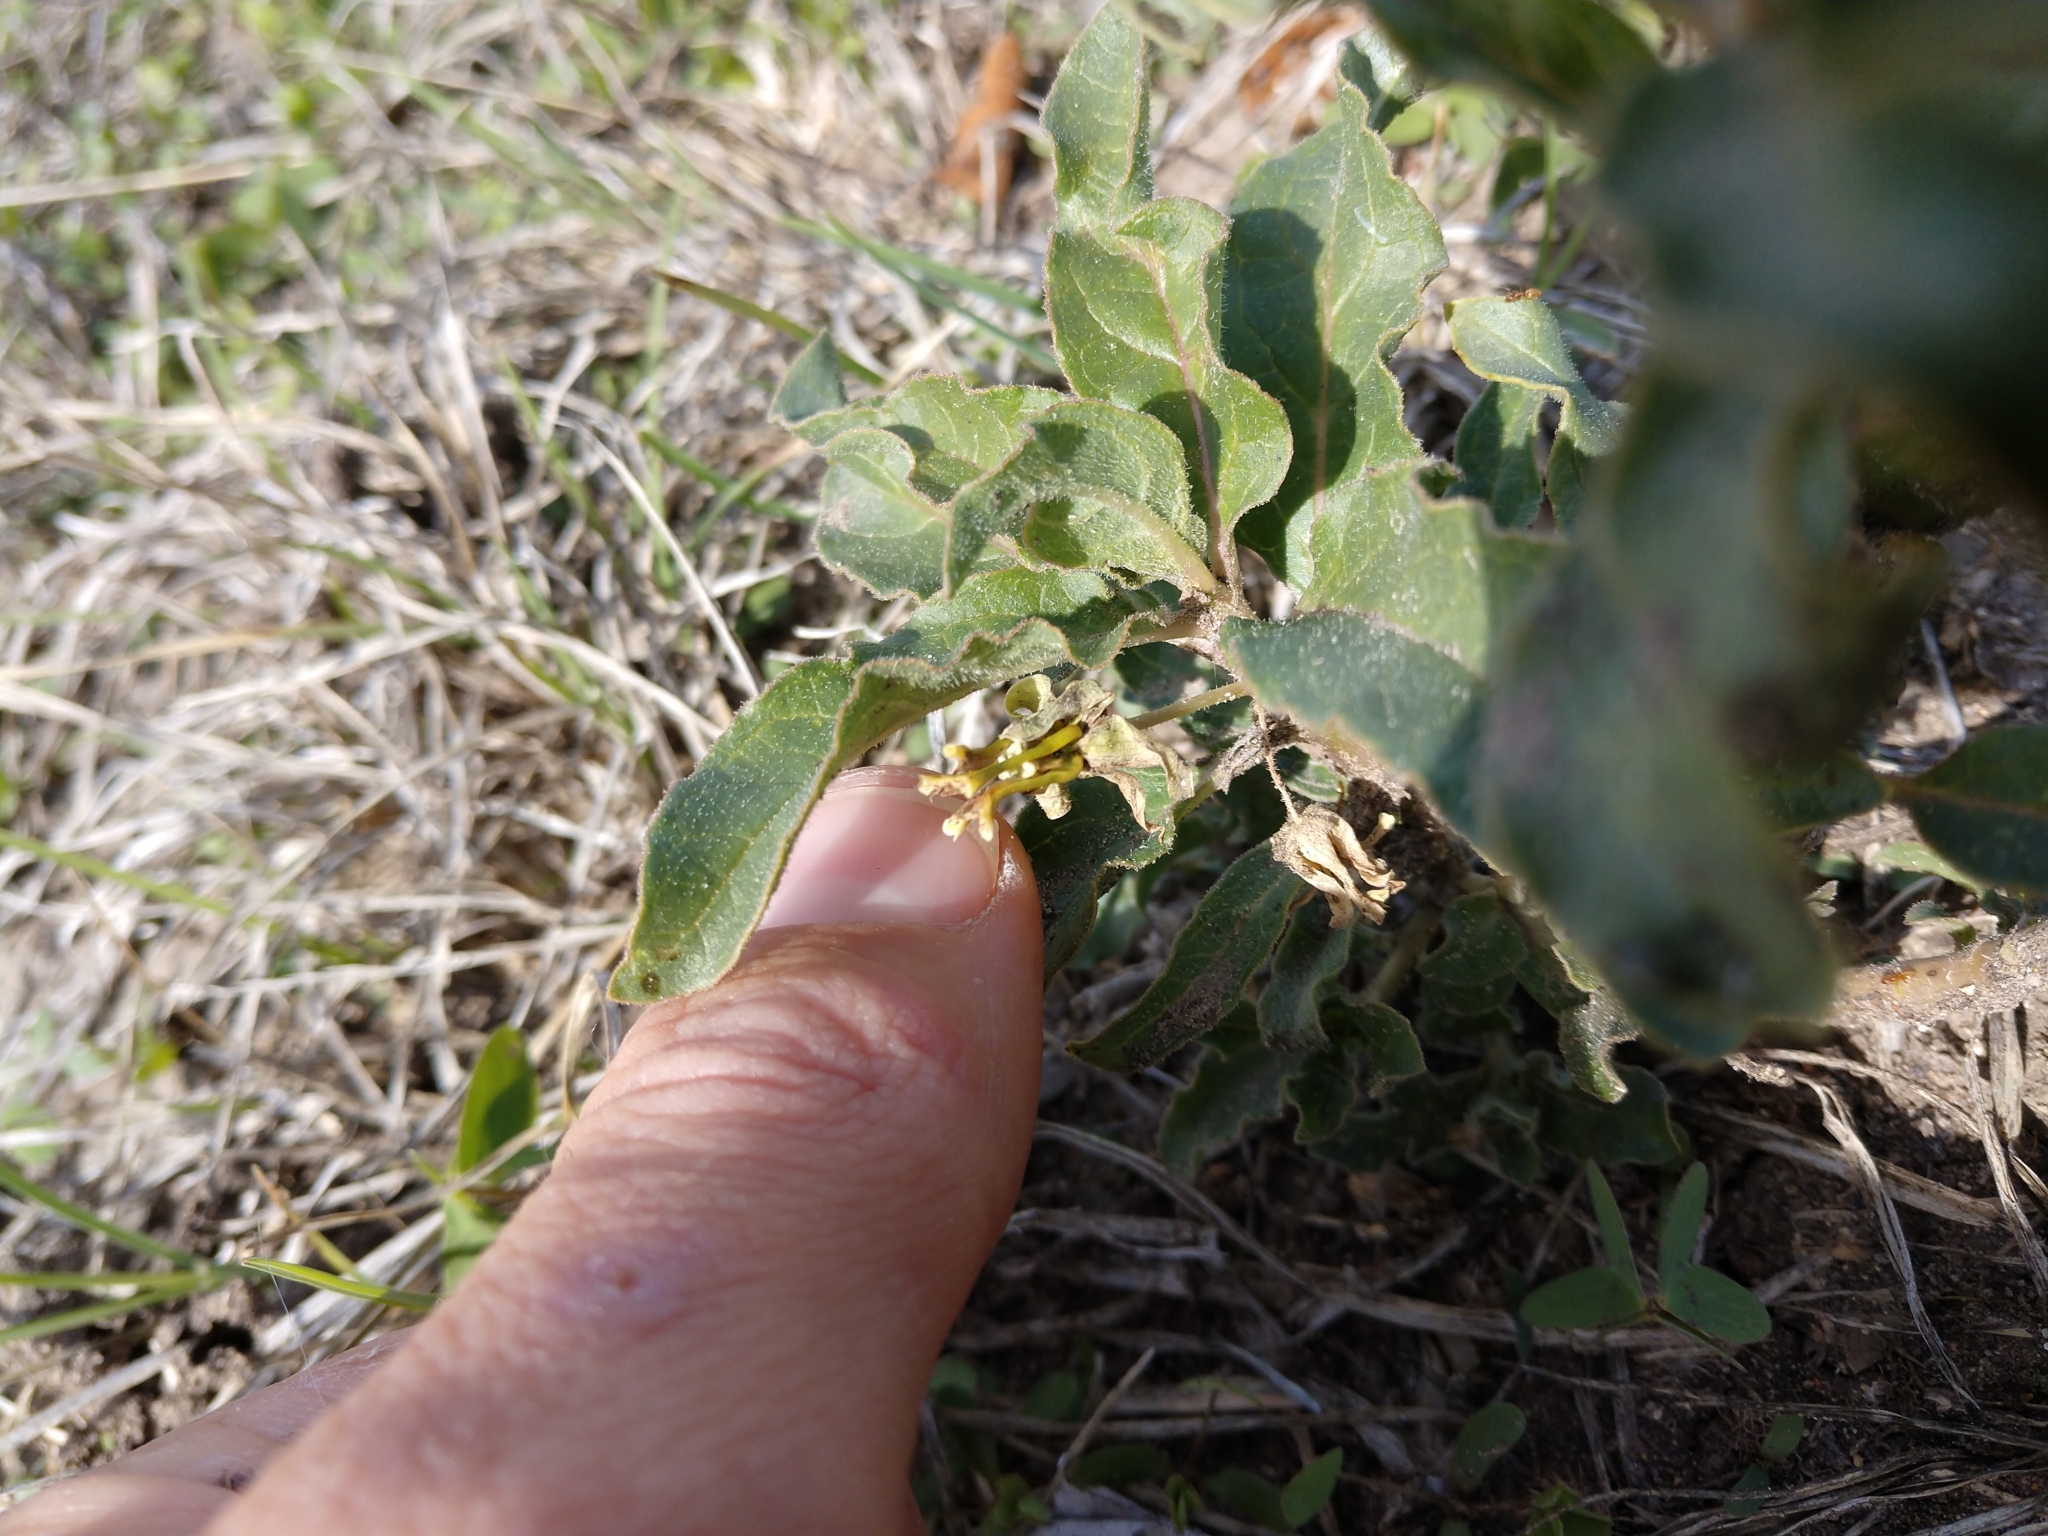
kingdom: Plantae
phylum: Tracheophyta
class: Magnoliopsida
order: Gentianales
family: Apocynaceae
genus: Asclepias
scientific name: Asclepias oenotheroides
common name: Zizotes milkweed
